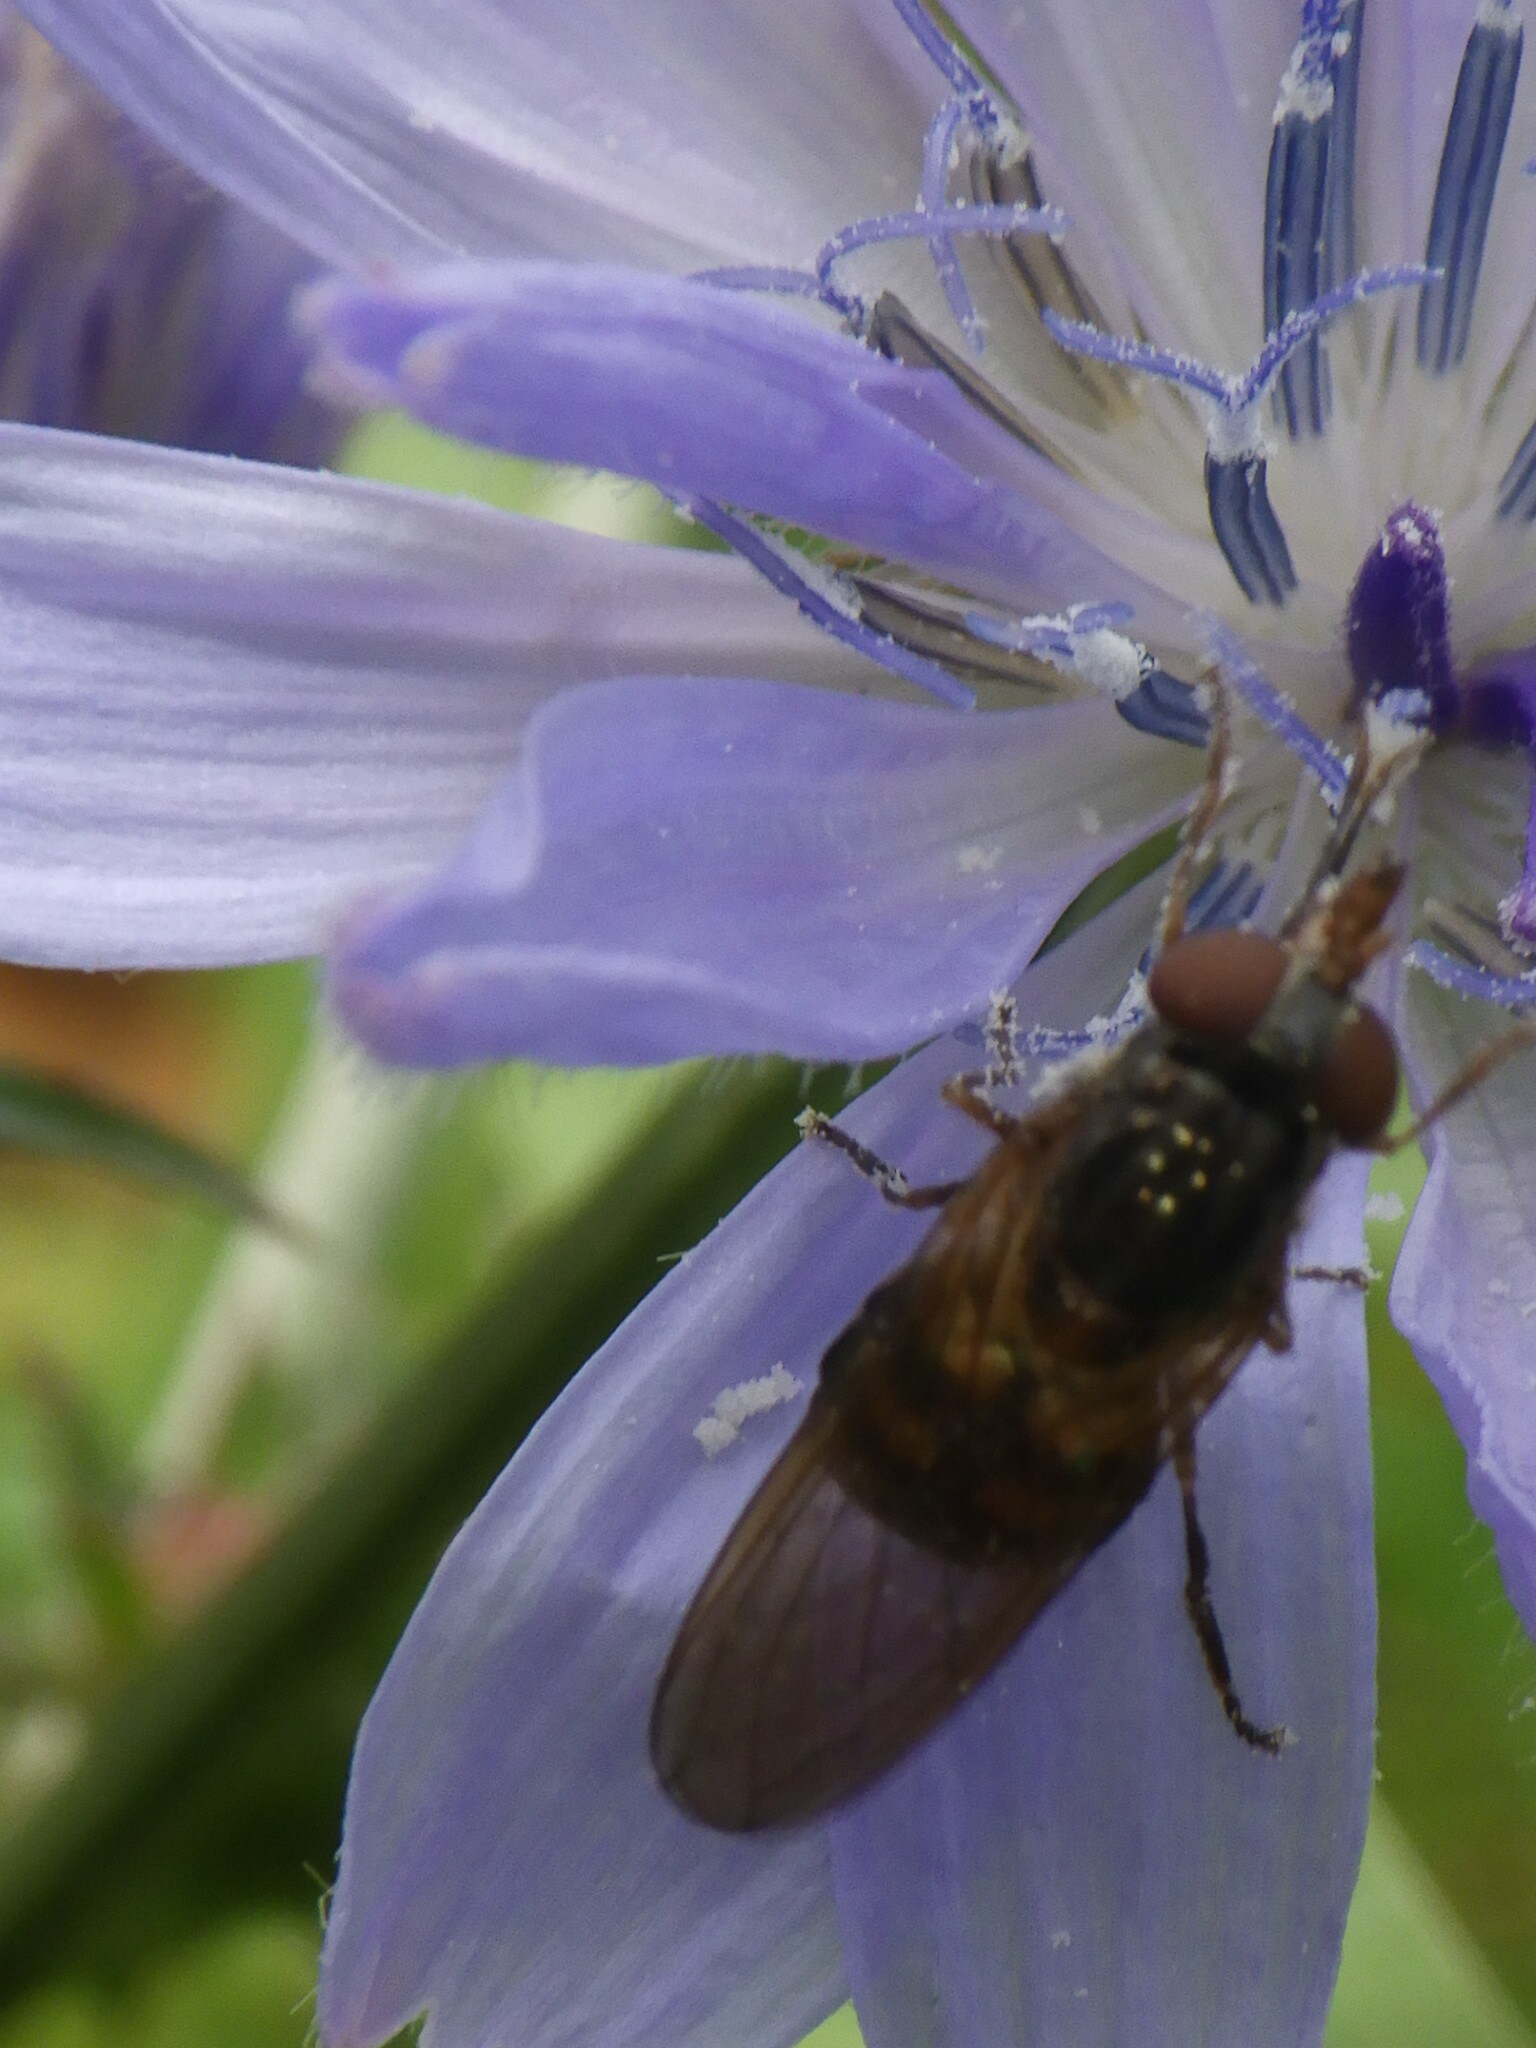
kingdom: Animalia
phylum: Arthropoda
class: Insecta
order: Diptera
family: Syrphidae
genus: Rhingia
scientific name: Rhingia nasica
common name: American snout fly
